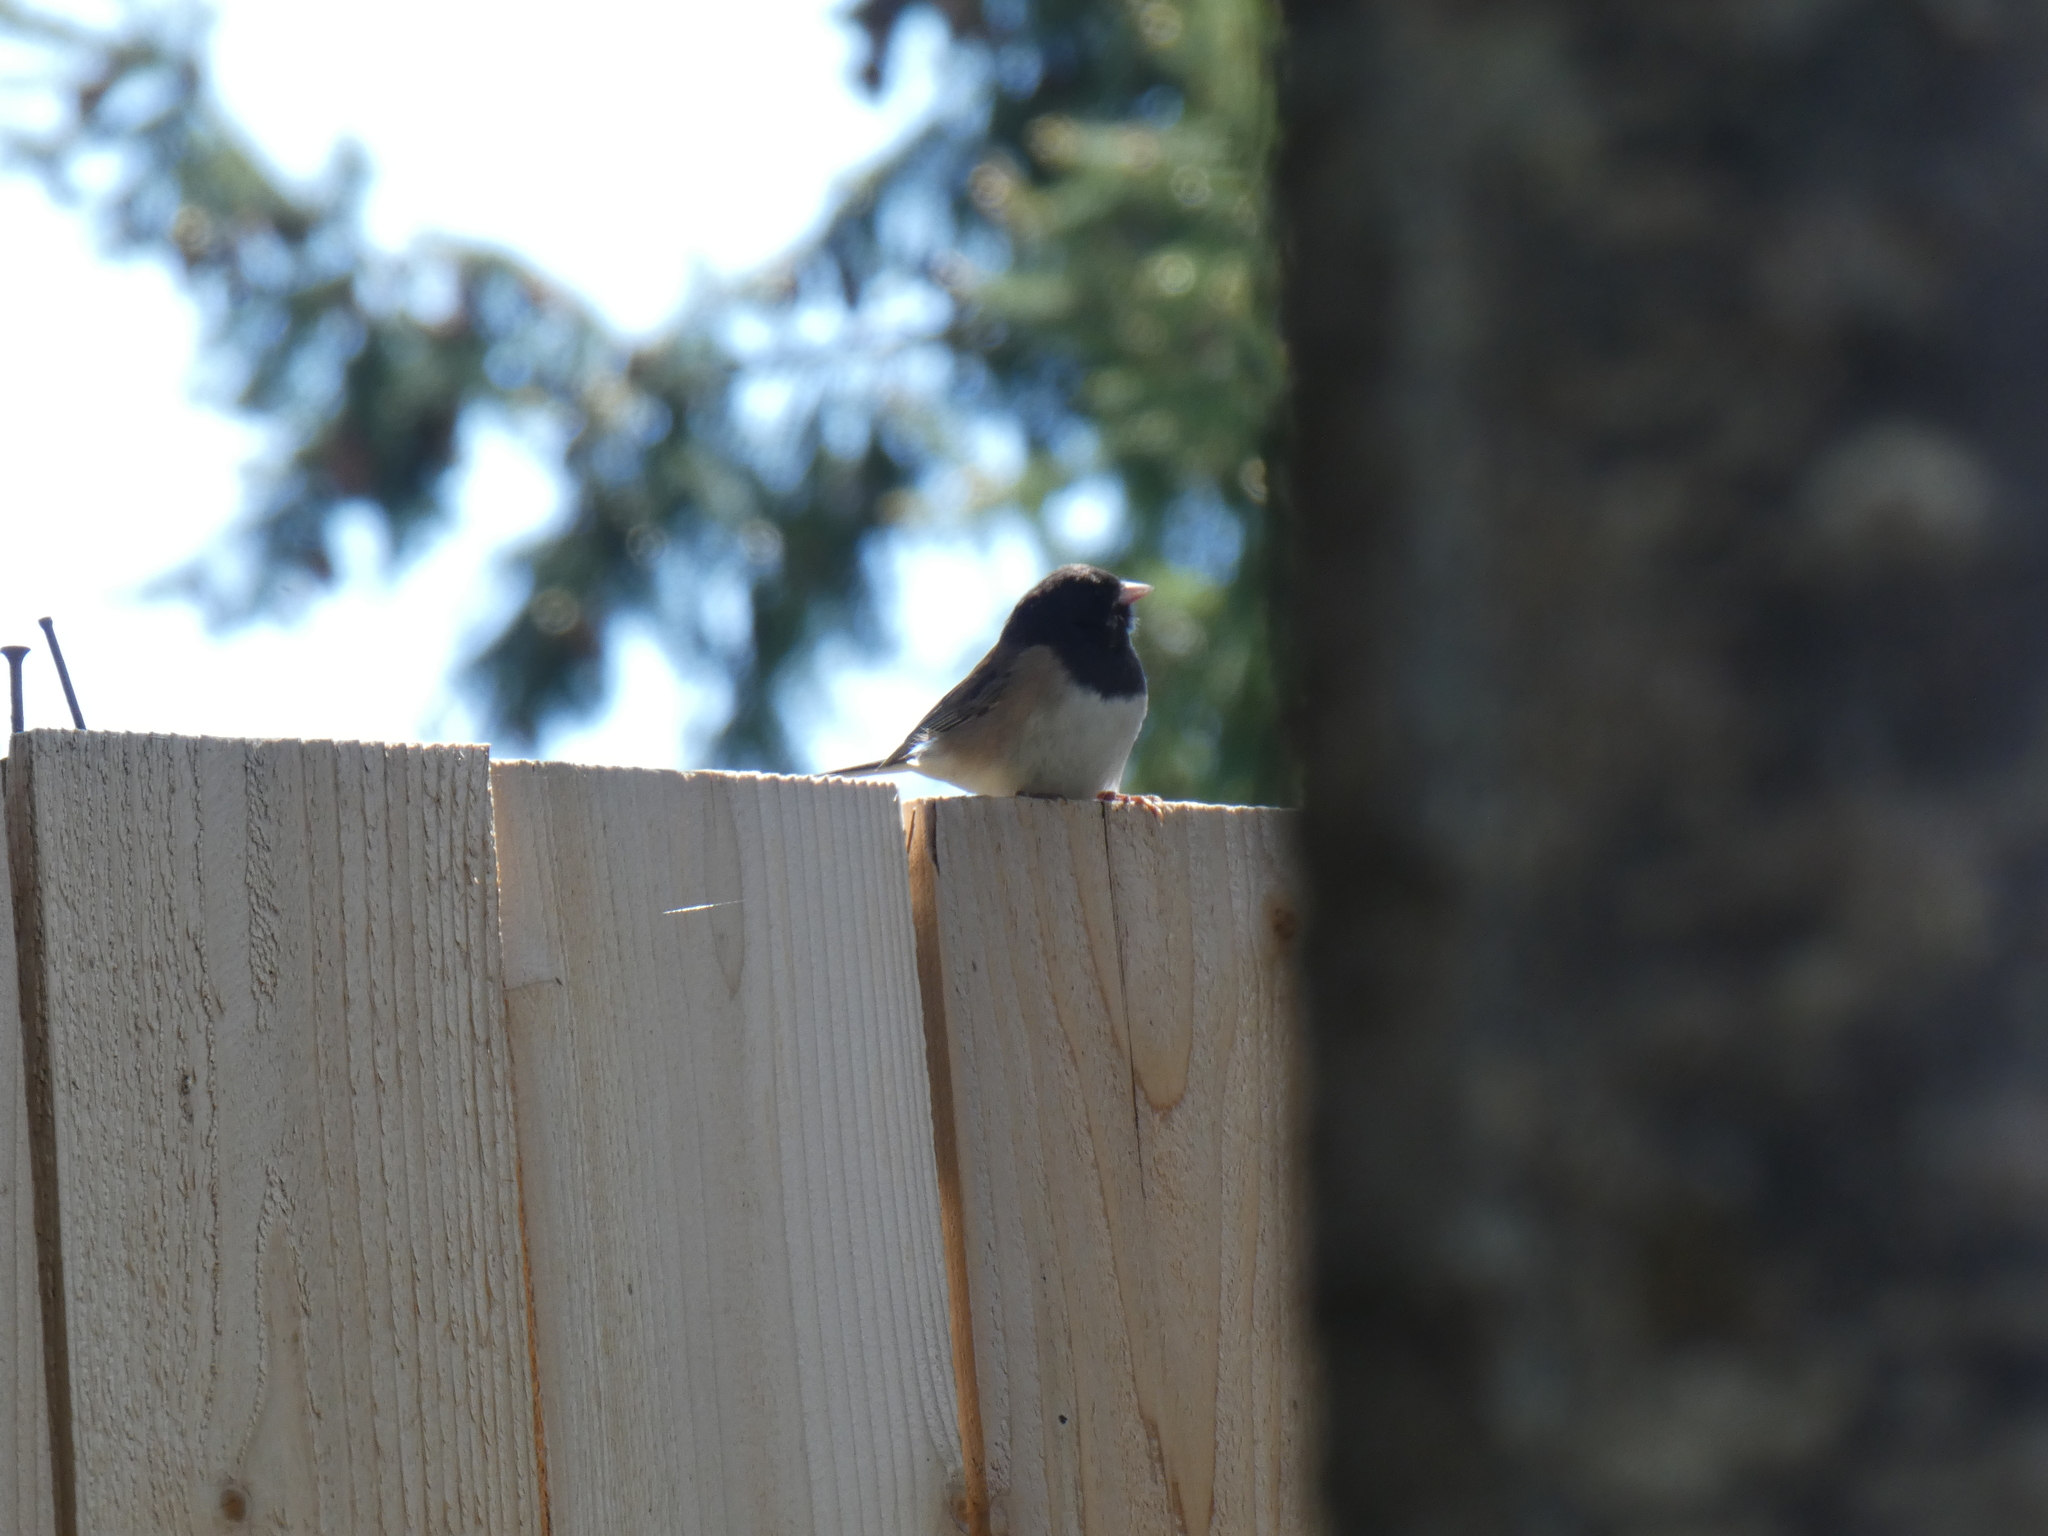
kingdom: Animalia
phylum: Chordata
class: Aves
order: Passeriformes
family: Passerellidae
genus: Junco
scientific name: Junco hyemalis
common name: Dark-eyed junco
